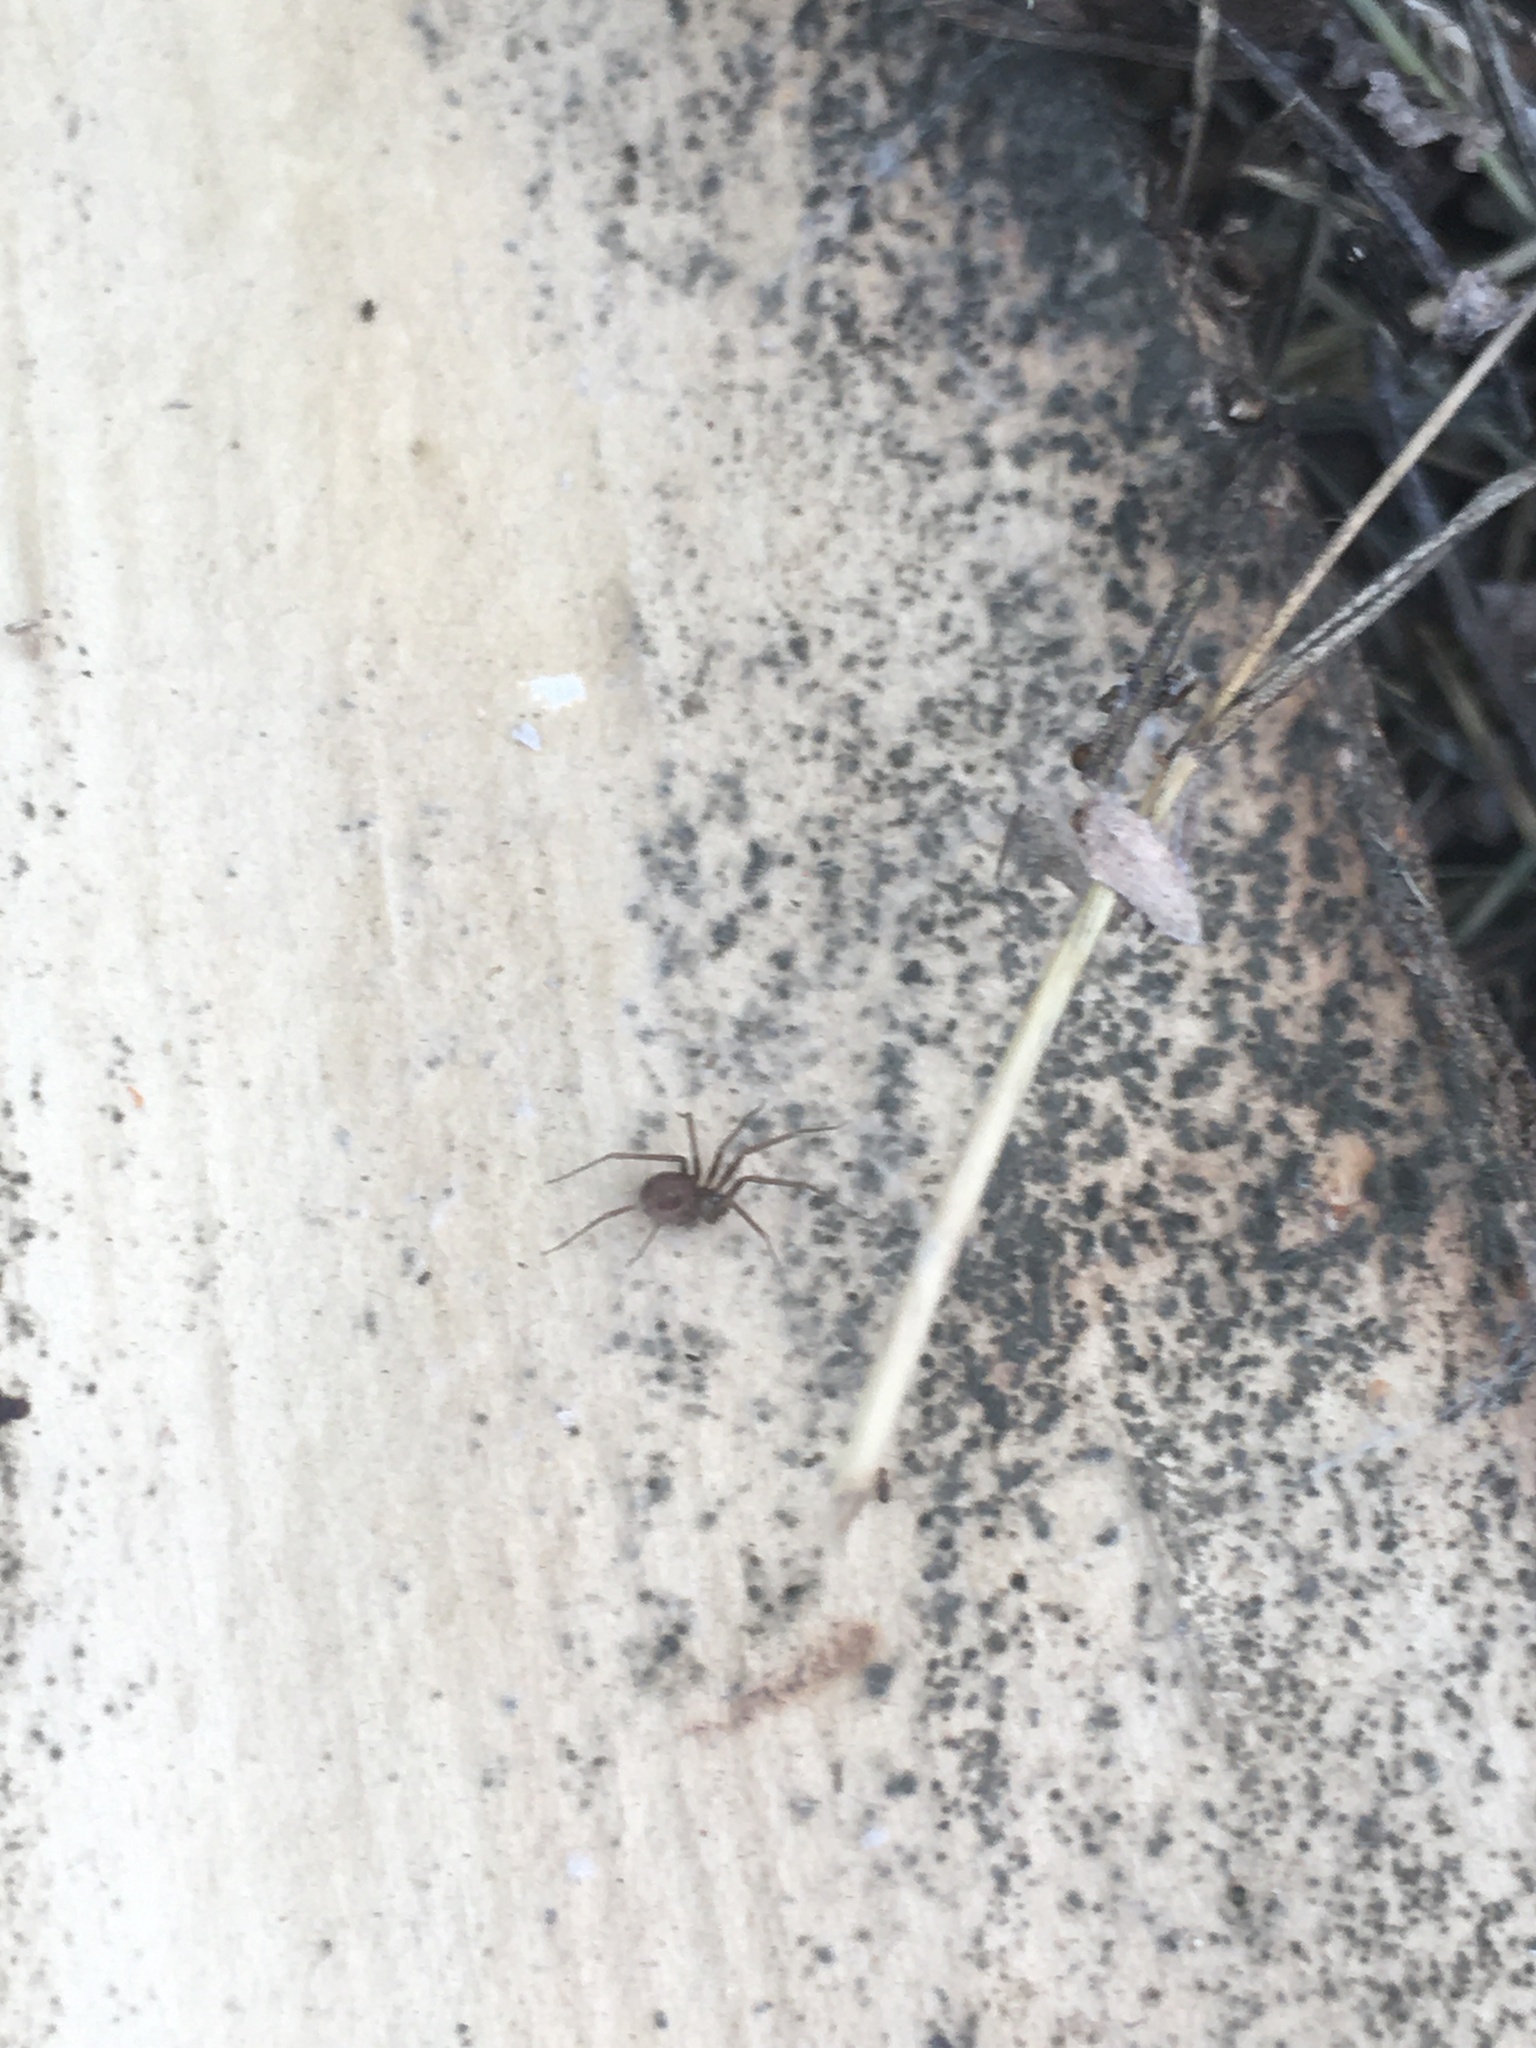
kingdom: Animalia
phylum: Arthropoda
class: Arachnida
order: Araneae
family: Pholcidae
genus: Pholcophora
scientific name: Pholcophora americana
